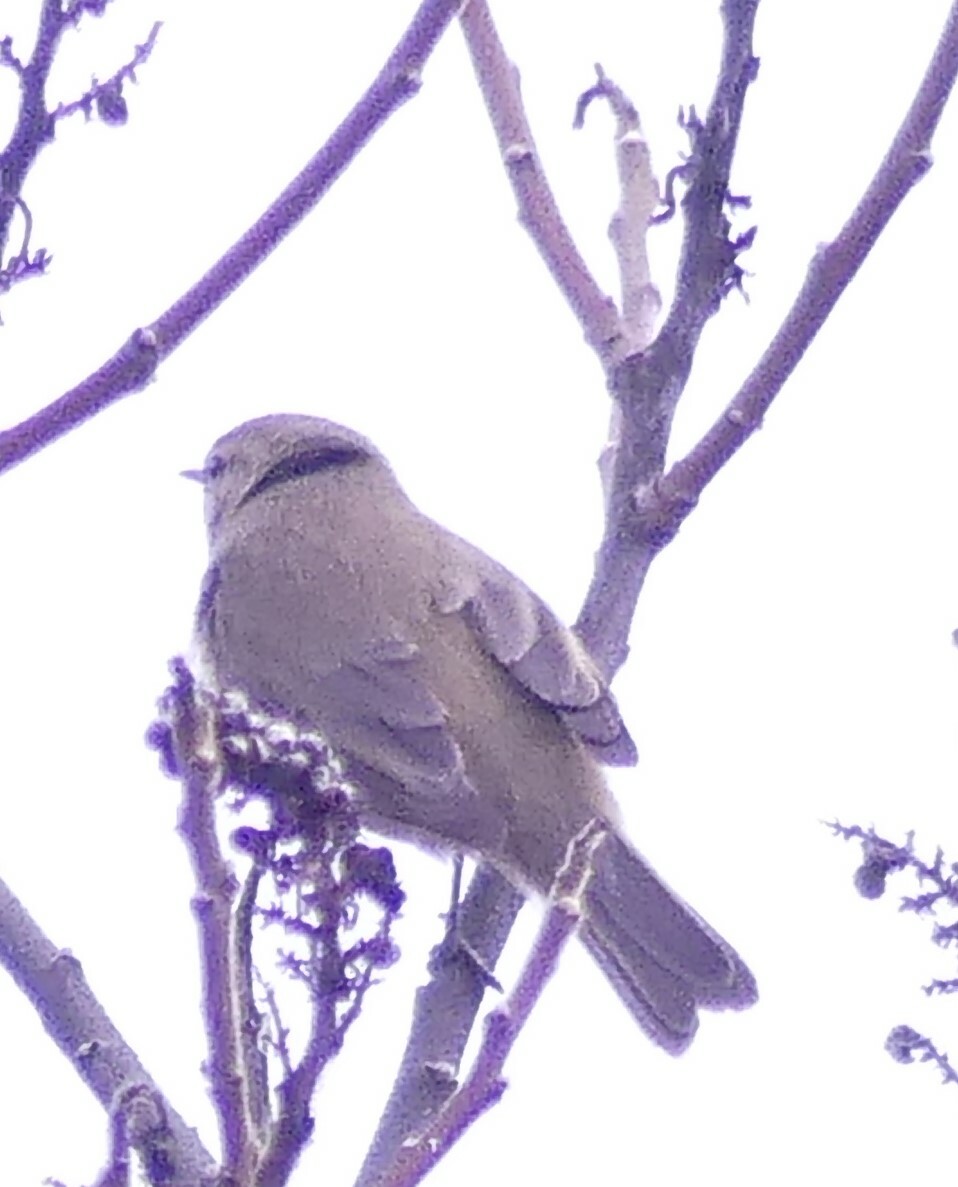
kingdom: Animalia
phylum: Chordata
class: Aves
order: Passeriformes
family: Phylloscopidae
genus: Phylloscopus
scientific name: Phylloscopus collybita
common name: Common chiffchaff
